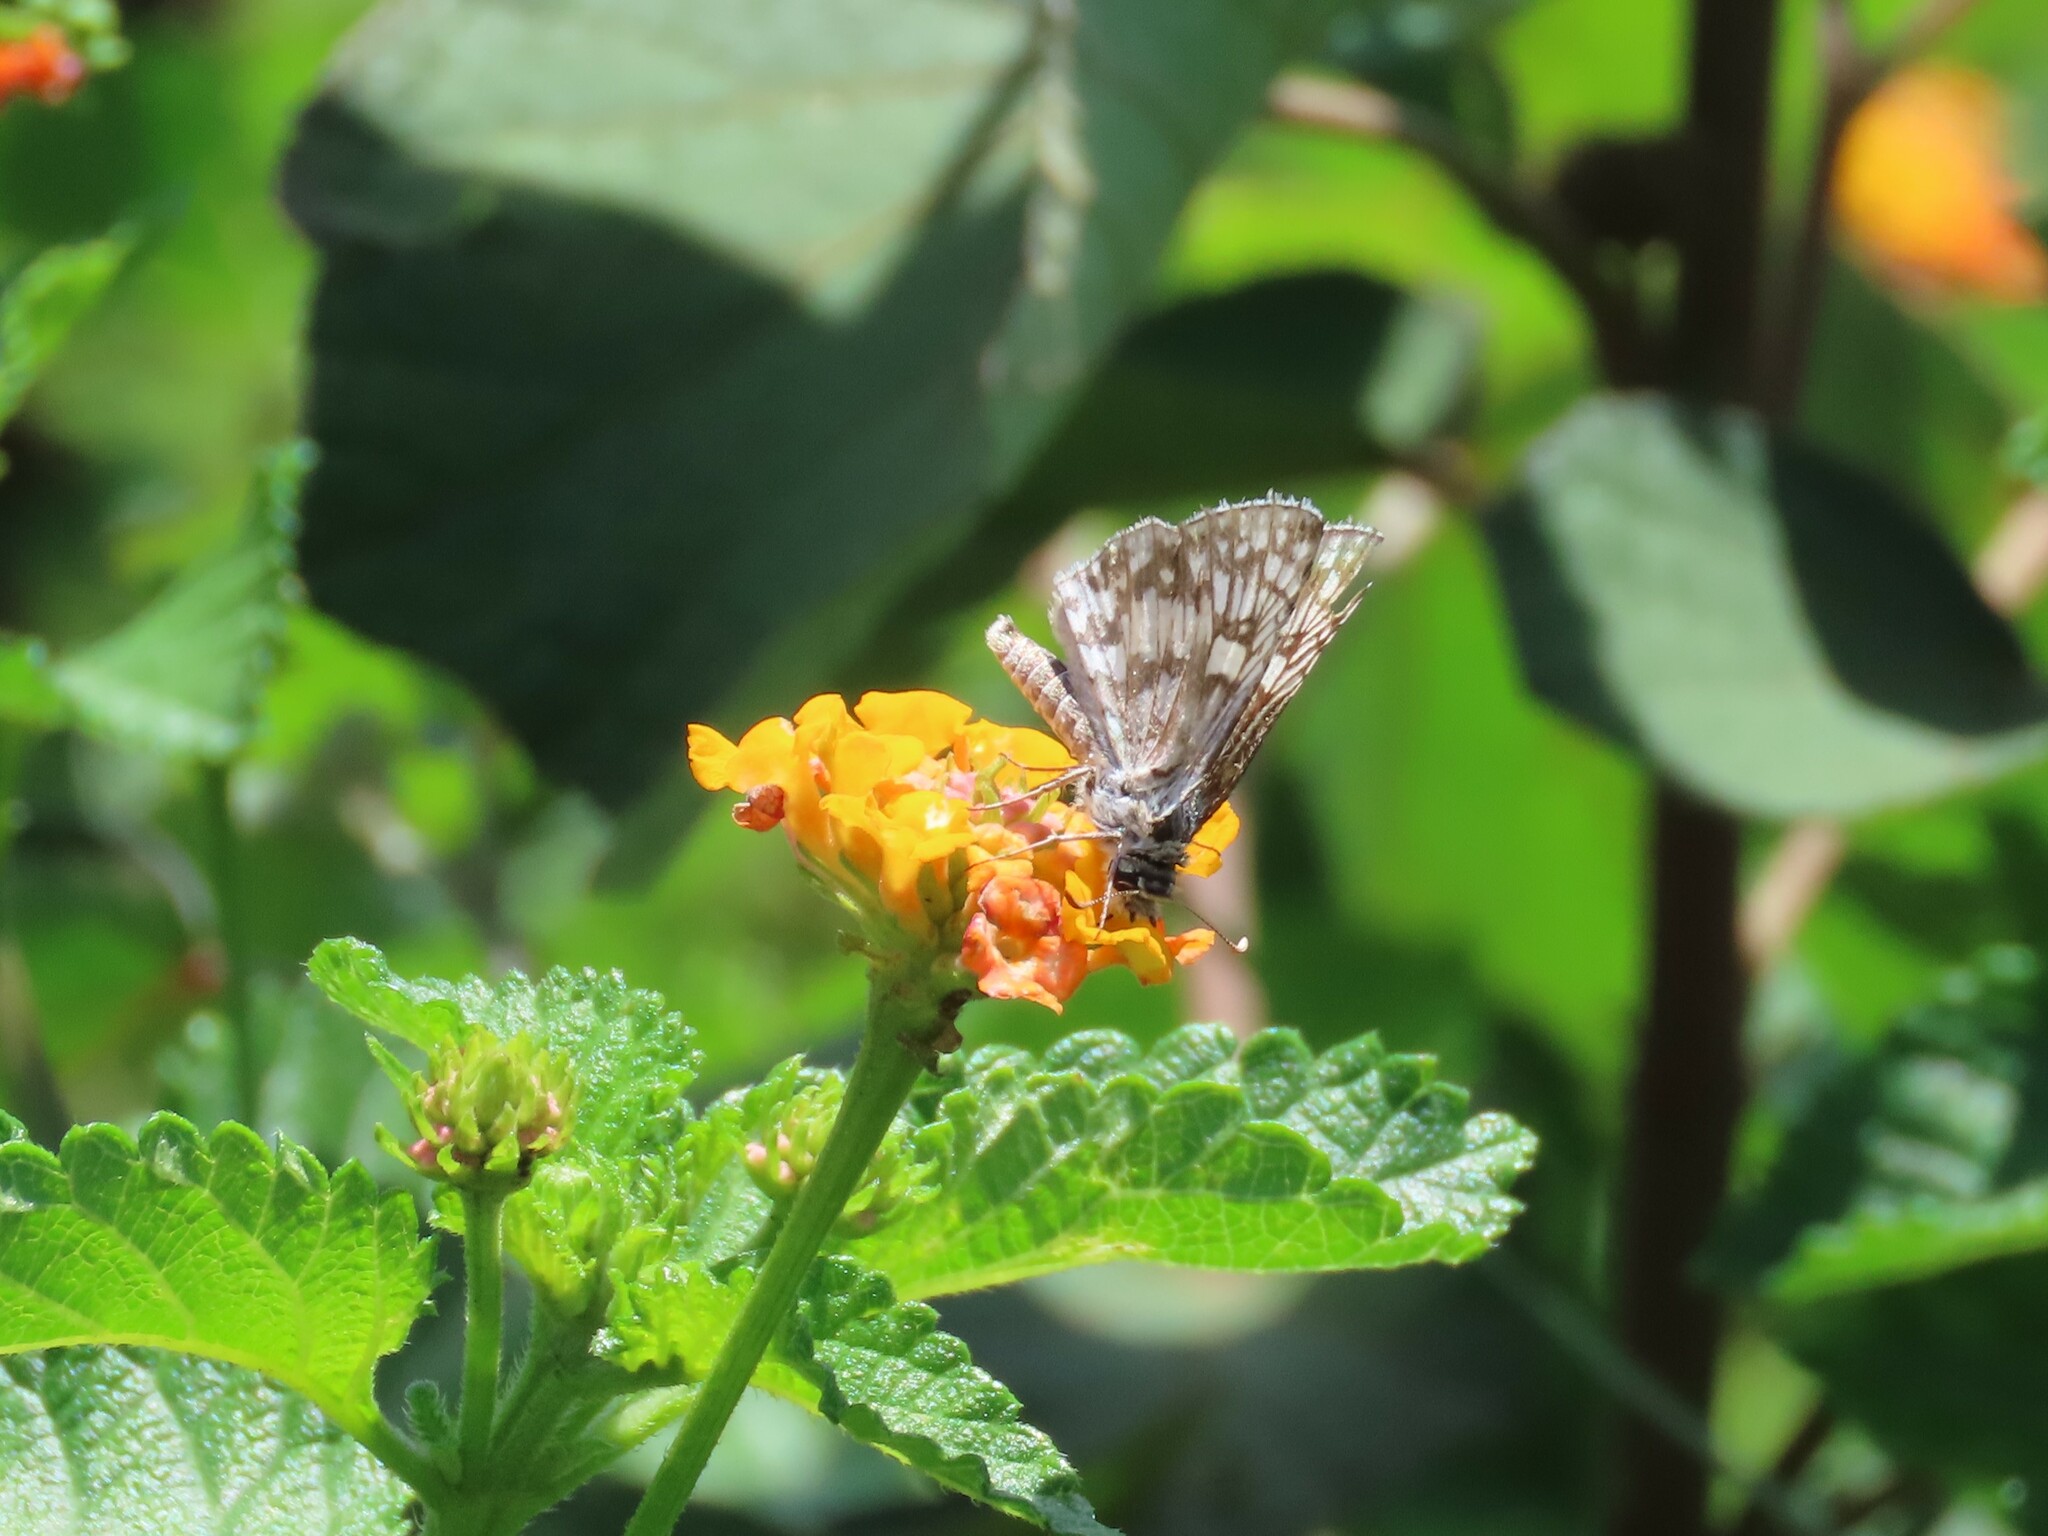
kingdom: Animalia
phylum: Arthropoda
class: Insecta
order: Lepidoptera
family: Hesperiidae
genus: Burnsius
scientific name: Burnsius albezens
